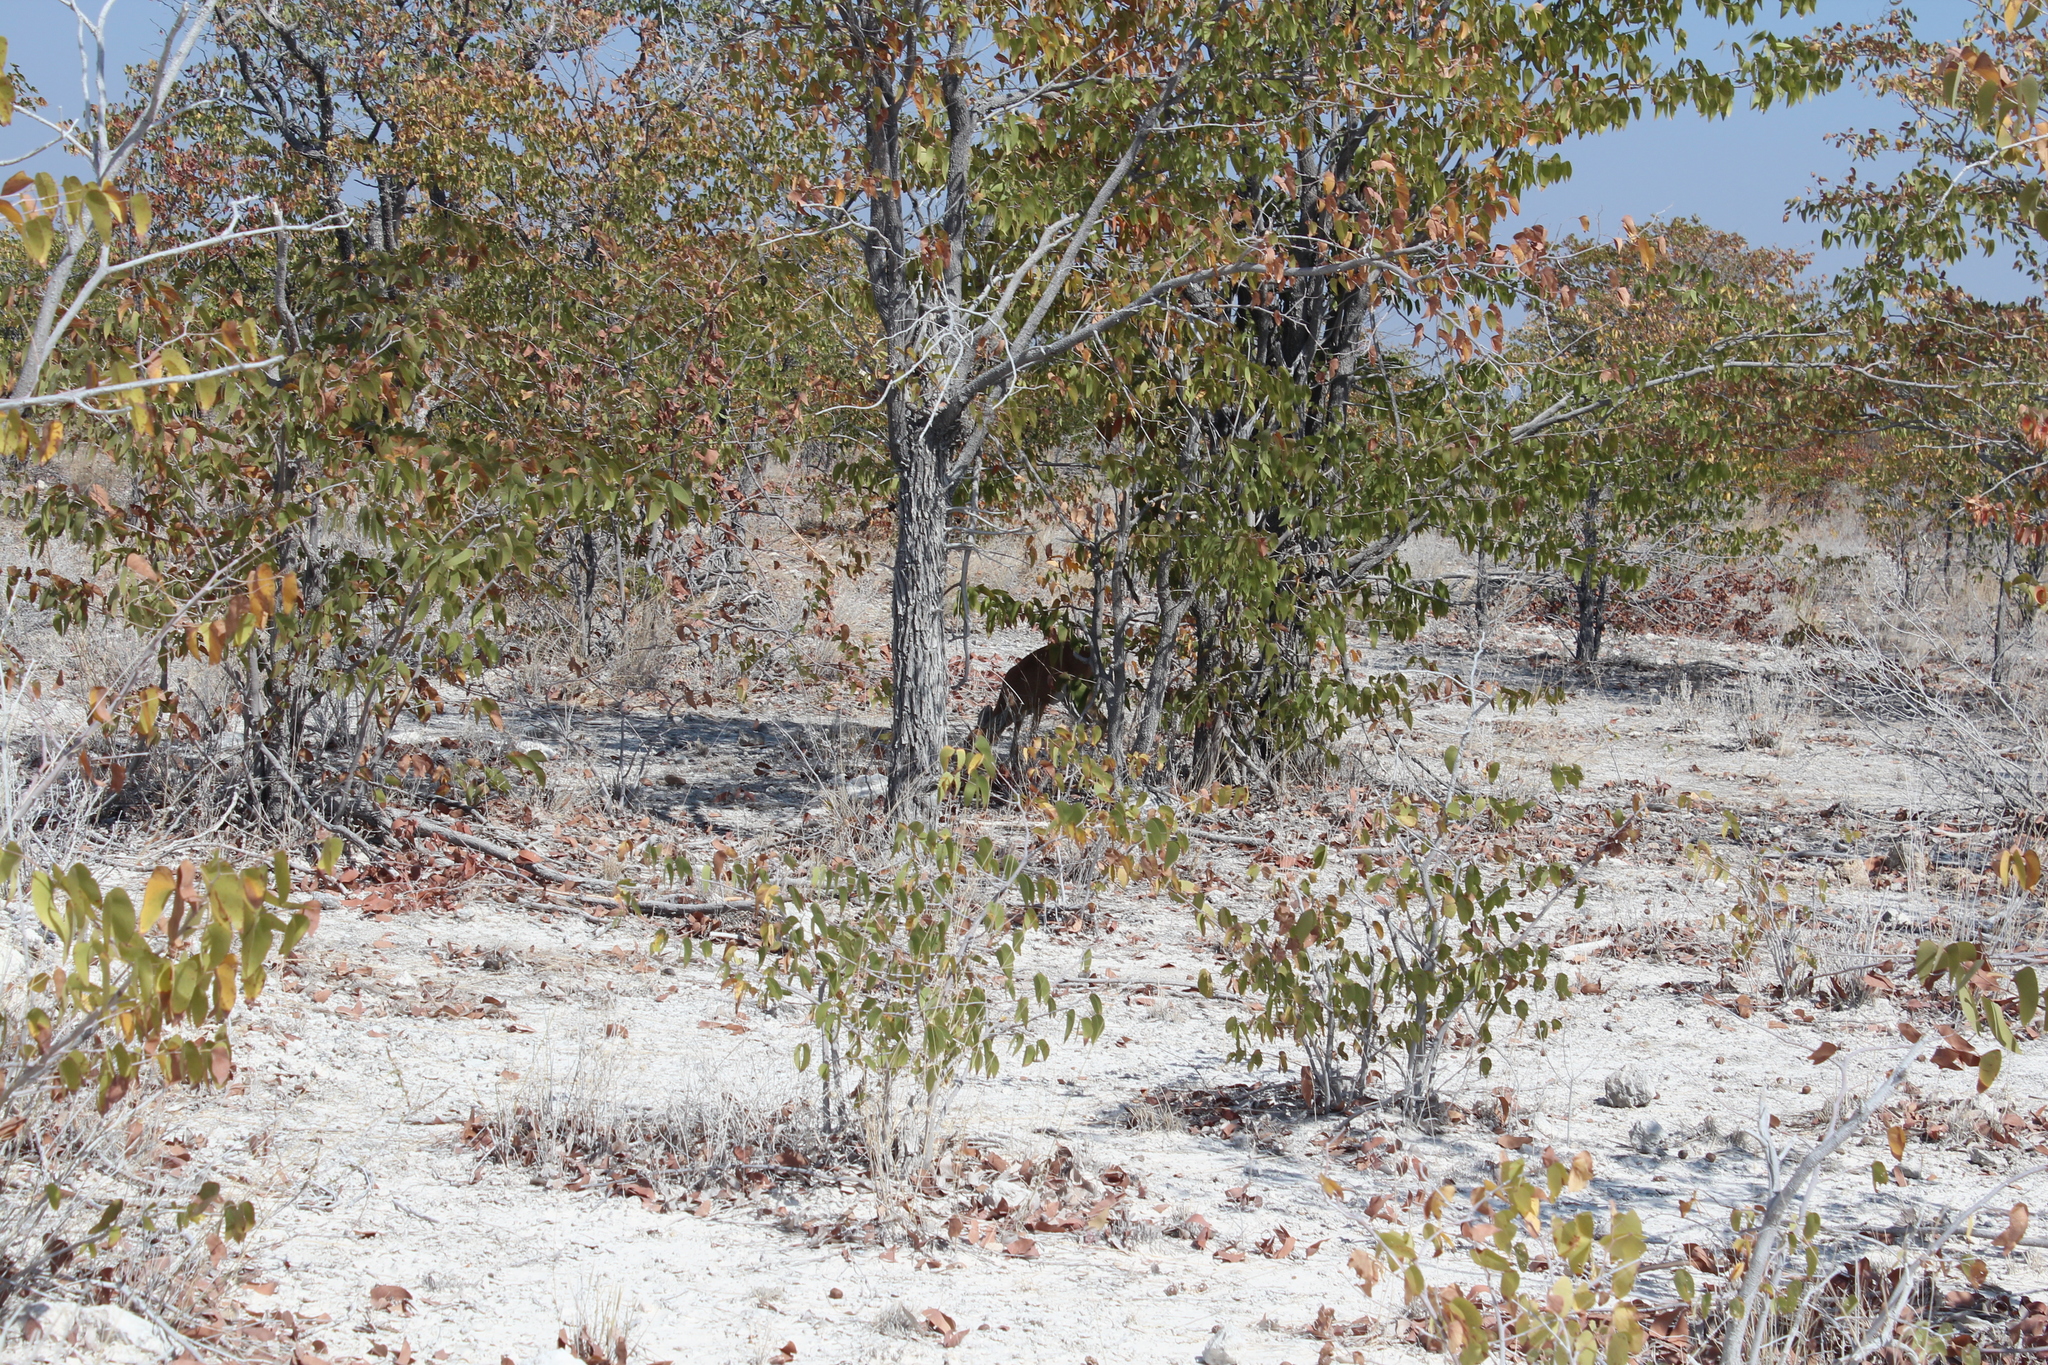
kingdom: Animalia
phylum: Chordata
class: Mammalia
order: Artiodactyla
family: Bovidae
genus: Raphicerus
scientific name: Raphicerus campestris
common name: Steenbok
